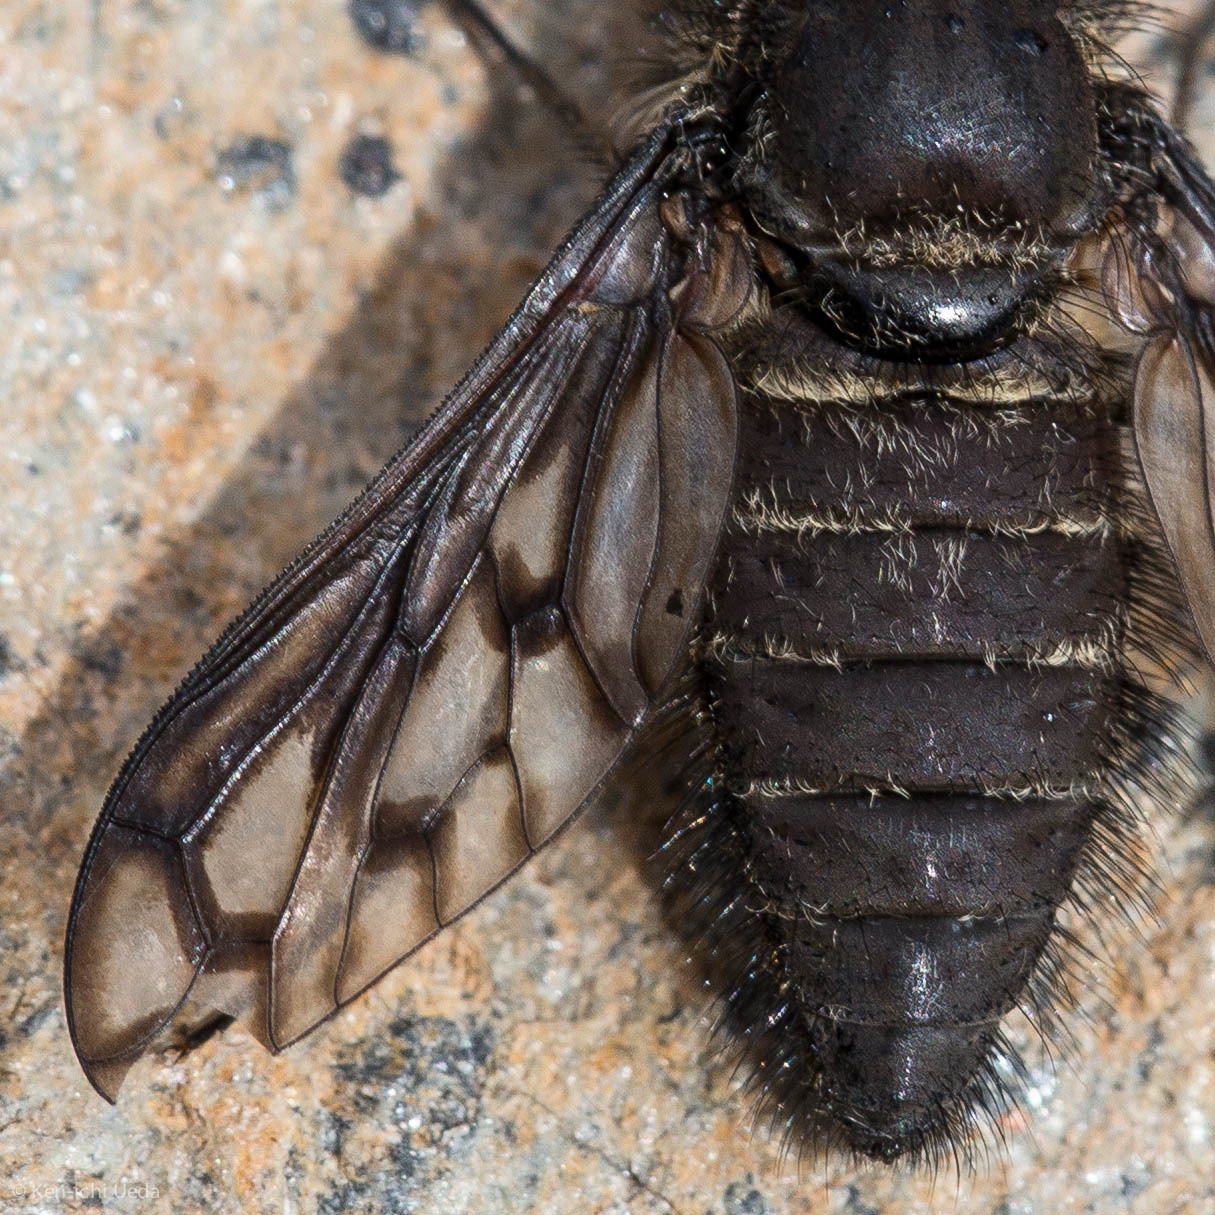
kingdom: Animalia
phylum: Arthropoda
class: Insecta
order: Diptera
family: Bombyliidae
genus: Conophorus
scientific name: Conophorus fenestratus
